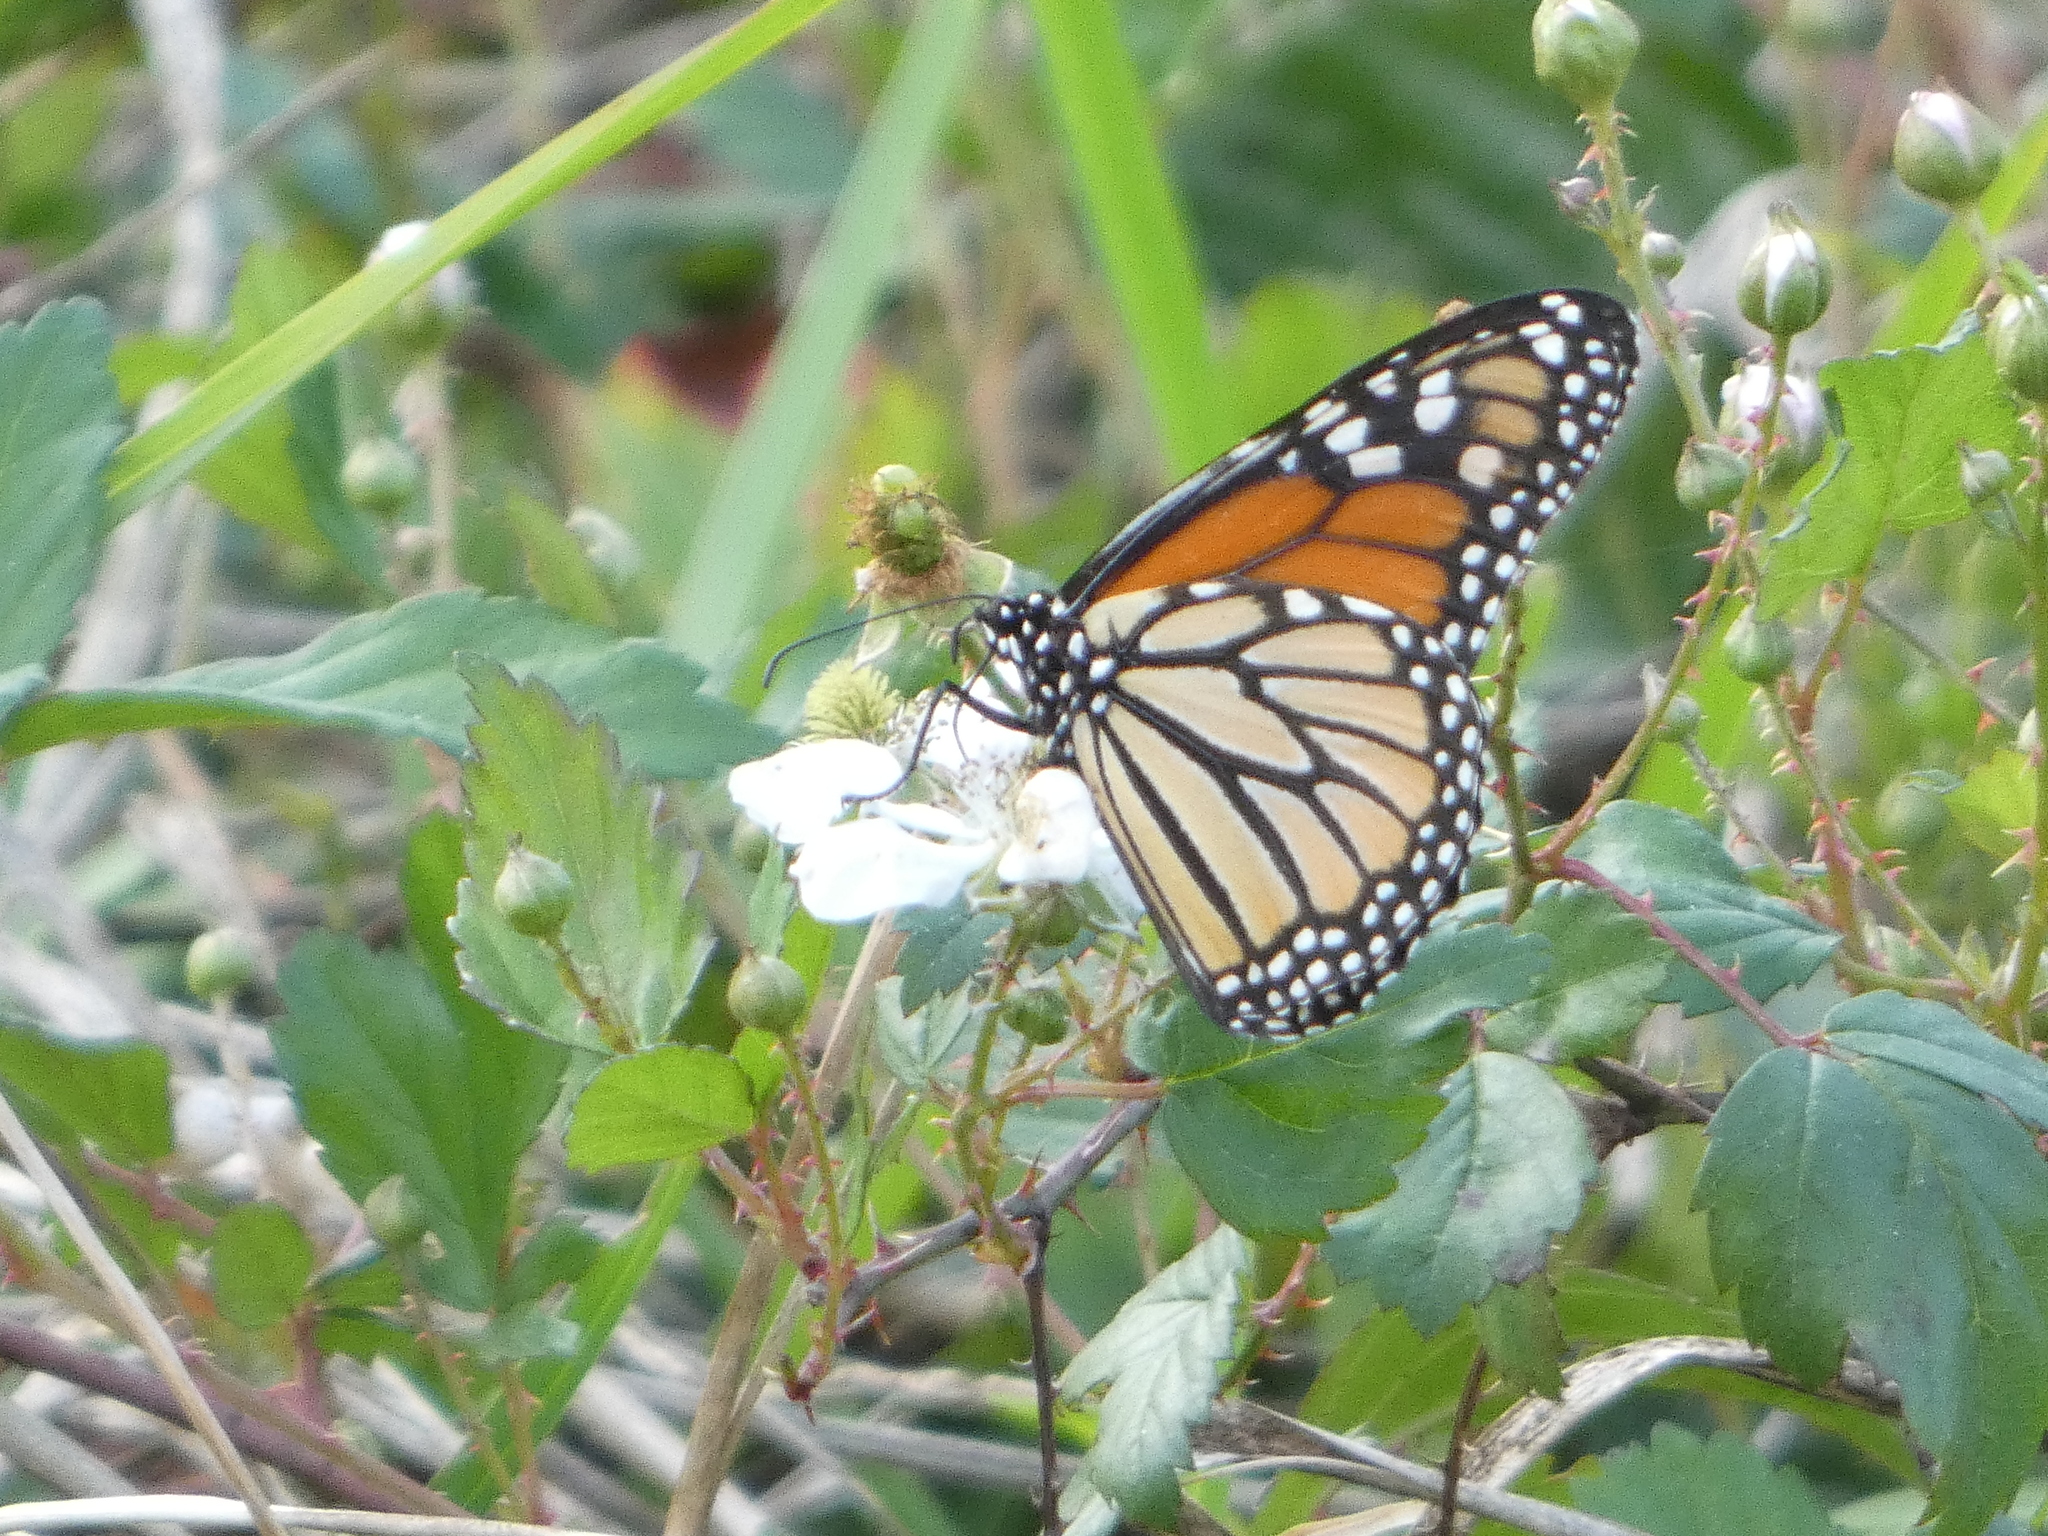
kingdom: Animalia
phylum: Arthropoda
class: Insecta
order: Lepidoptera
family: Nymphalidae
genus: Danaus
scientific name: Danaus plexippus
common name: Monarch
